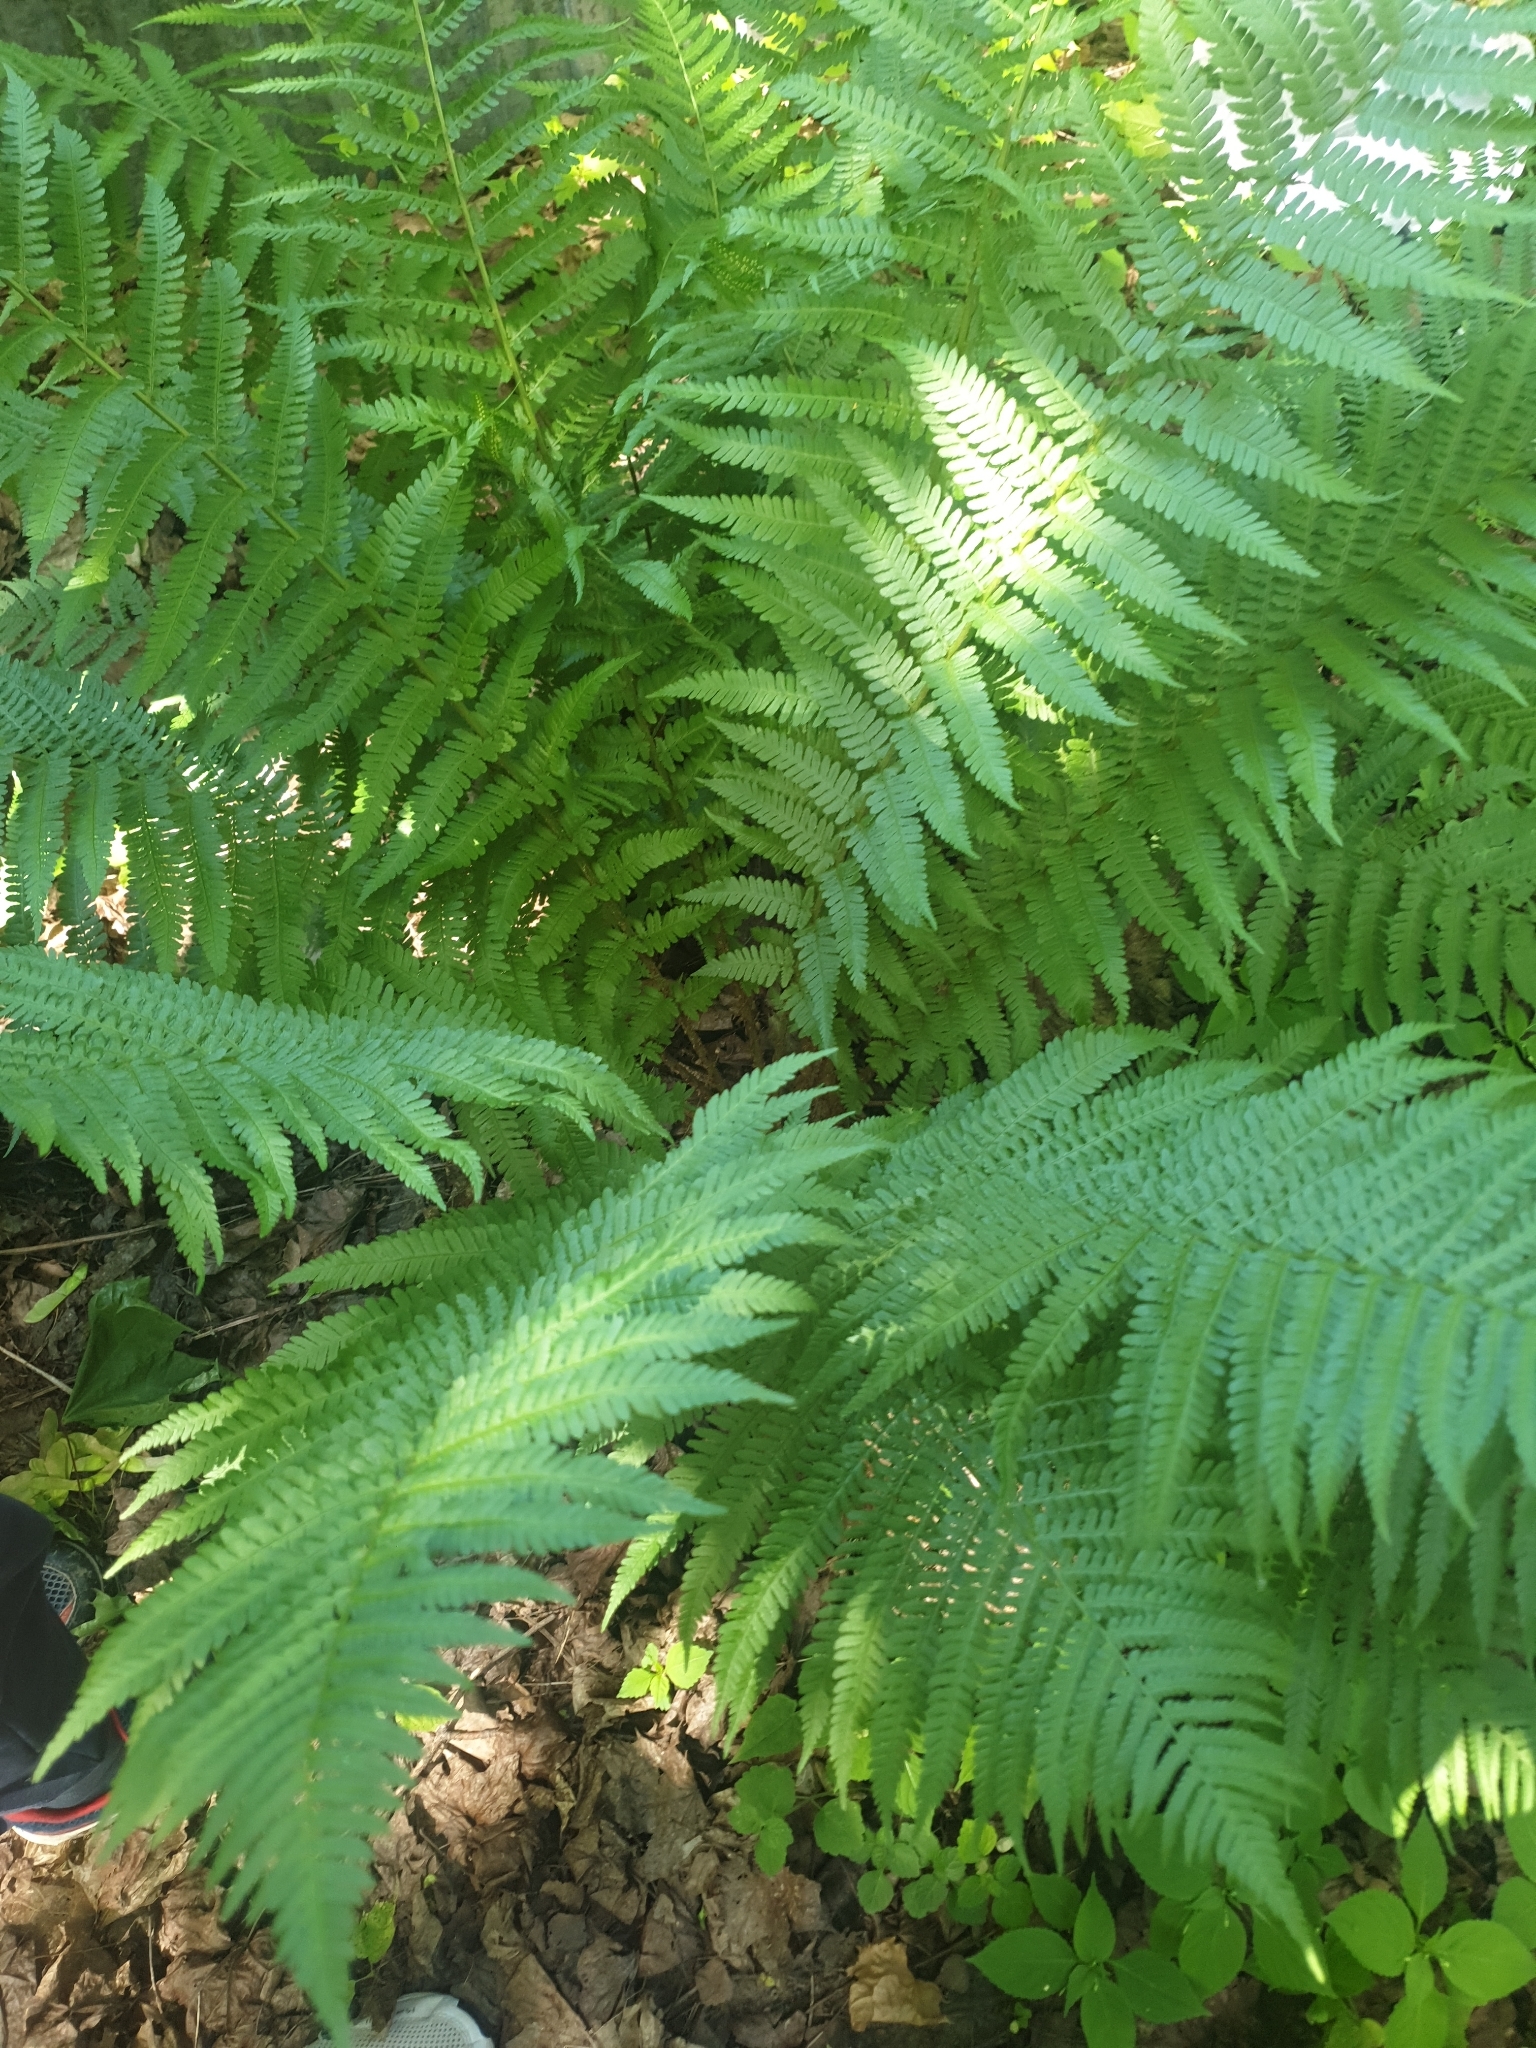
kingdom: Plantae
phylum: Tracheophyta
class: Polypodiopsida
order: Polypodiales
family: Dryopteridaceae
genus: Dryopteris
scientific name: Dryopteris filix-mas
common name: Male fern
